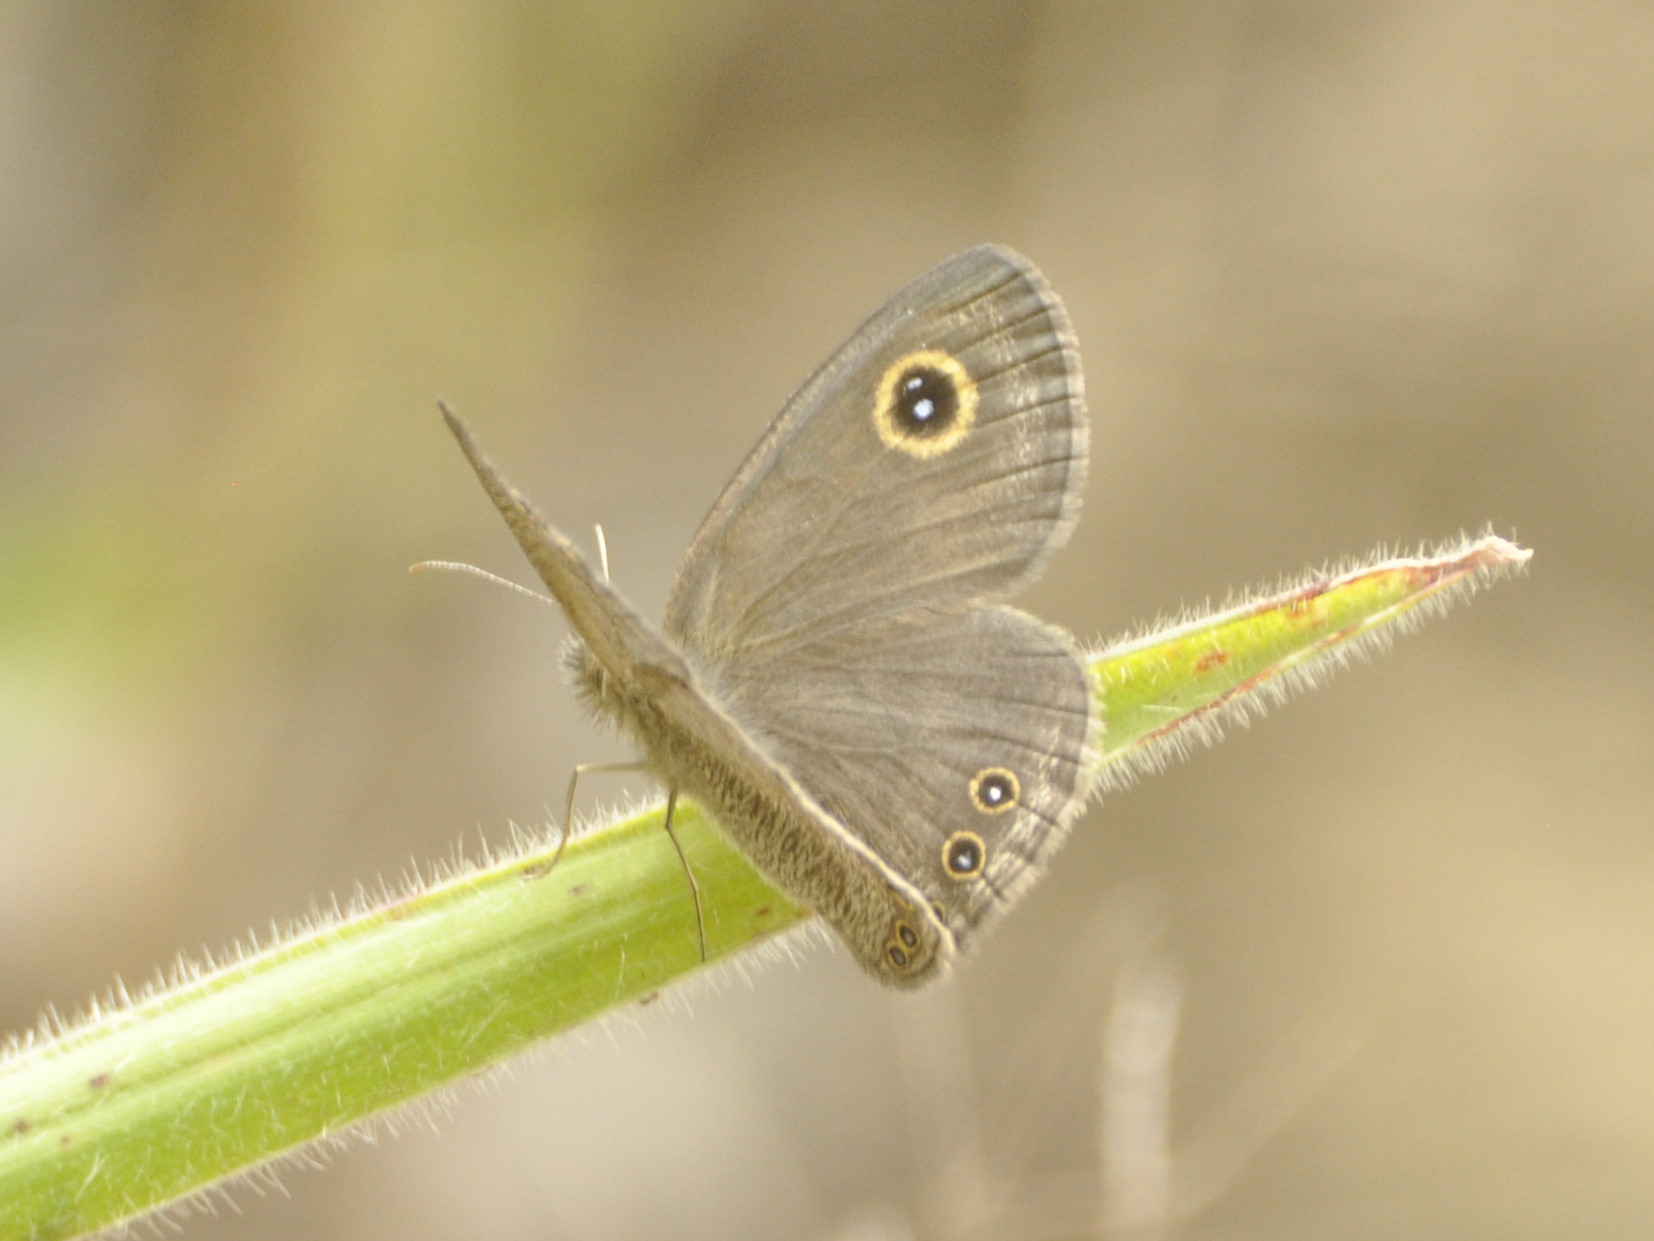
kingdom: Animalia
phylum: Arthropoda
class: Insecta
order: Lepidoptera
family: Nymphalidae
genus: Ypthimomorpha
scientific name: Ypthimomorpha itonia
